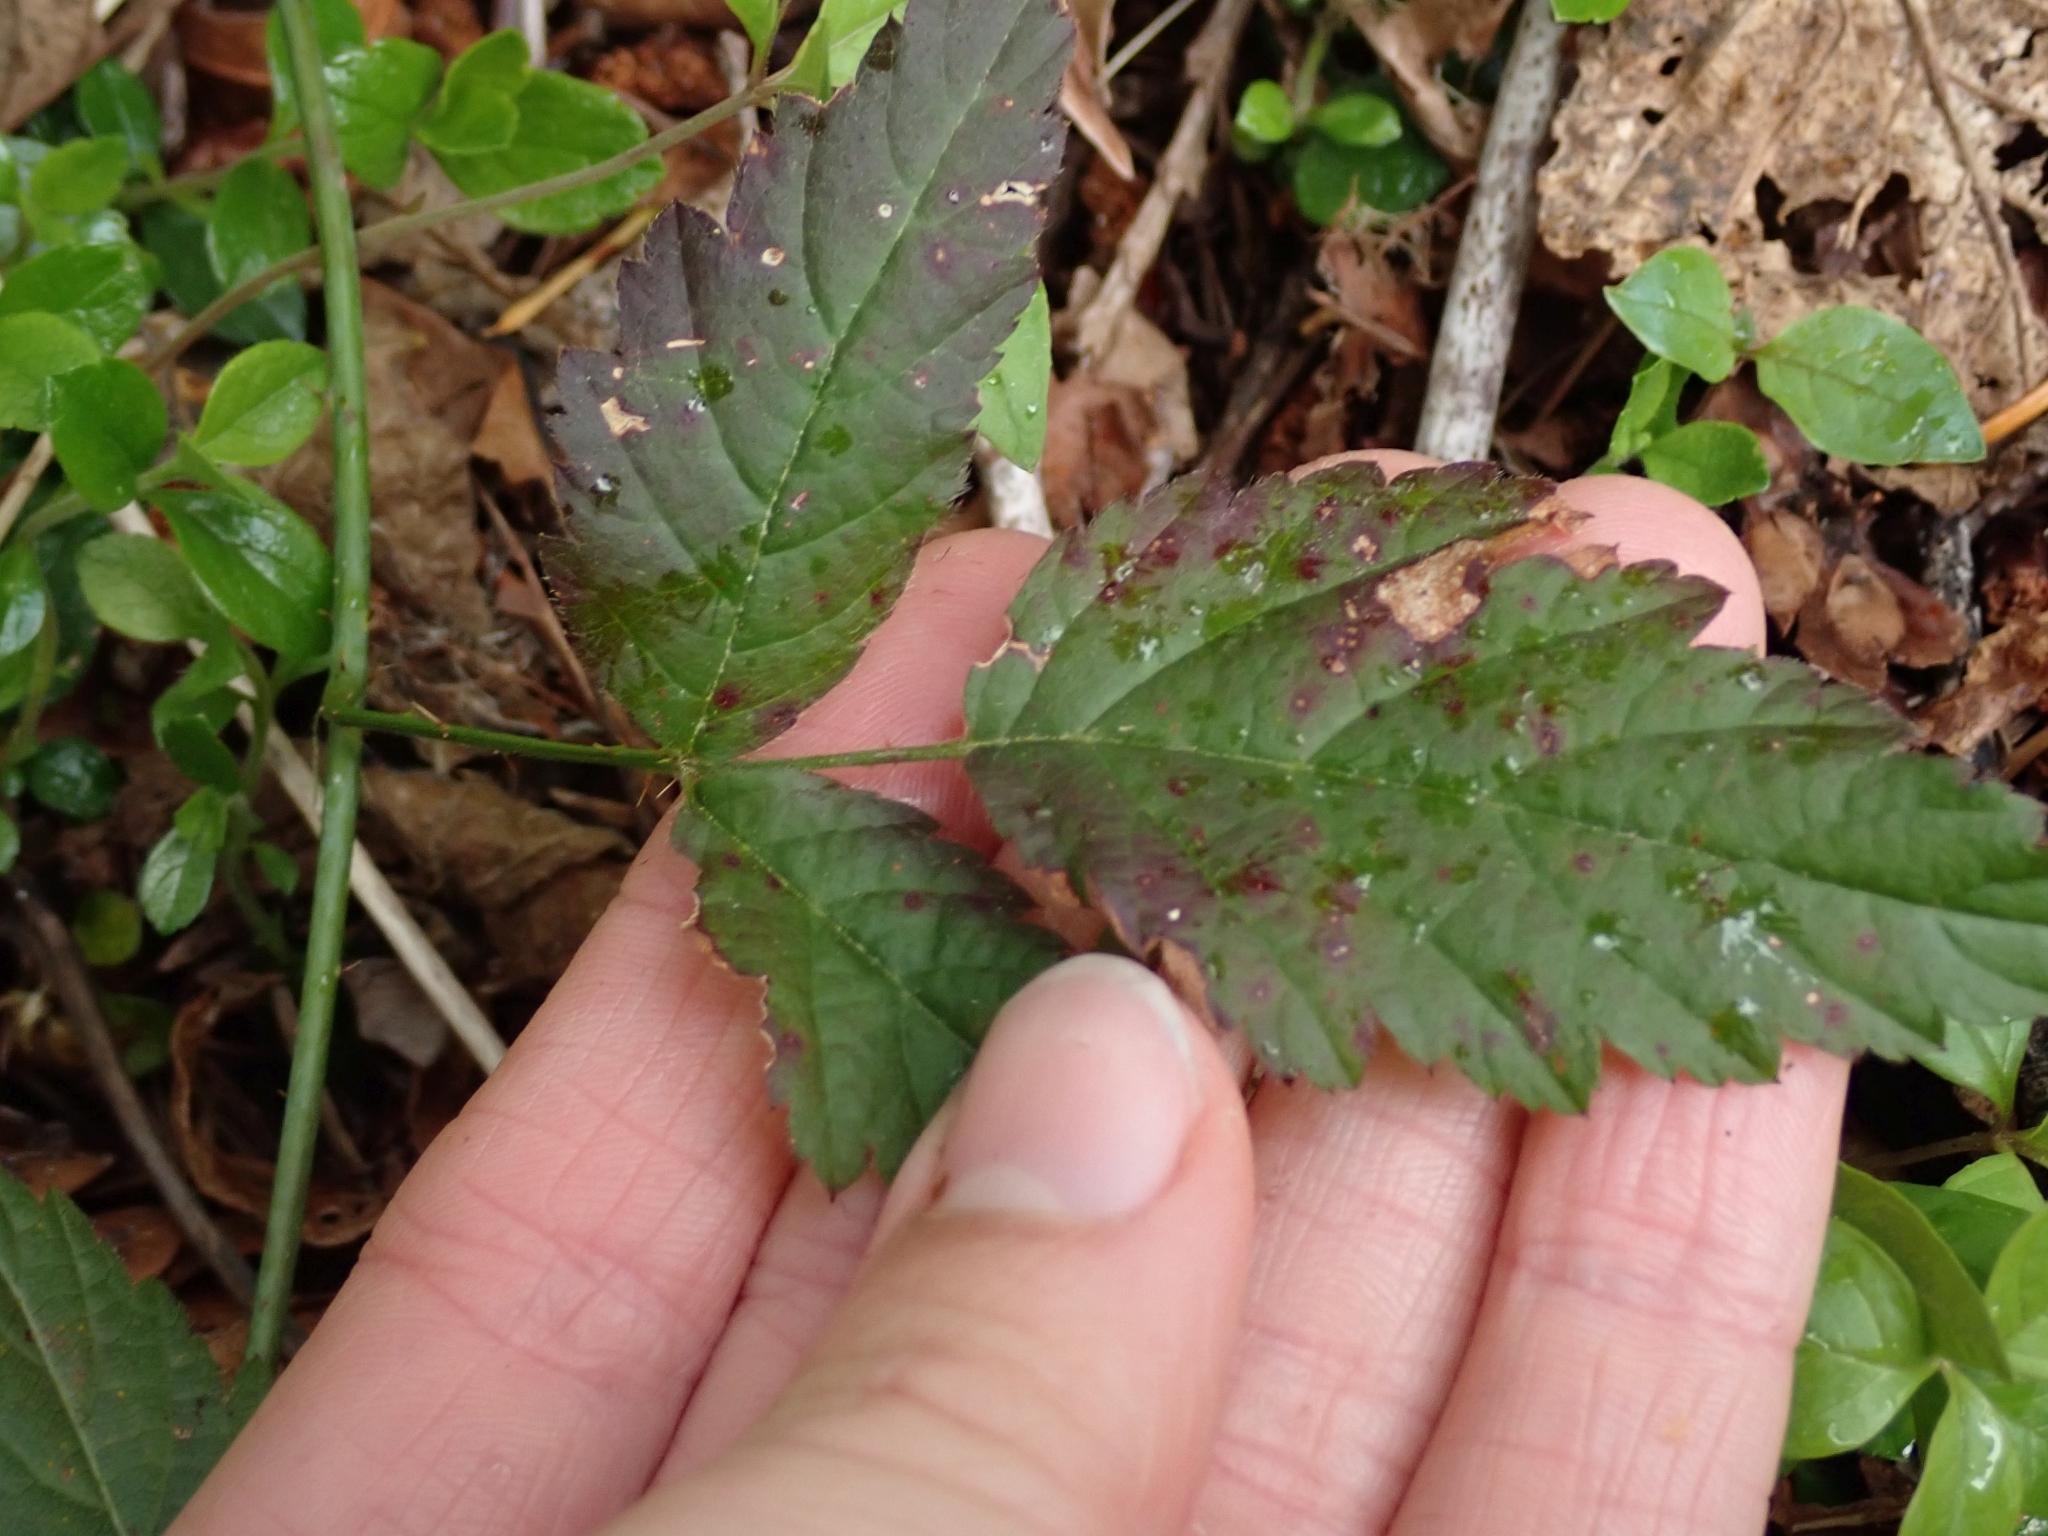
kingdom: Plantae
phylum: Tracheophyta
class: Magnoliopsida
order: Rosales
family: Rosaceae
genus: Rubus
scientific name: Rubus ursinus
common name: Pacific blackberry
